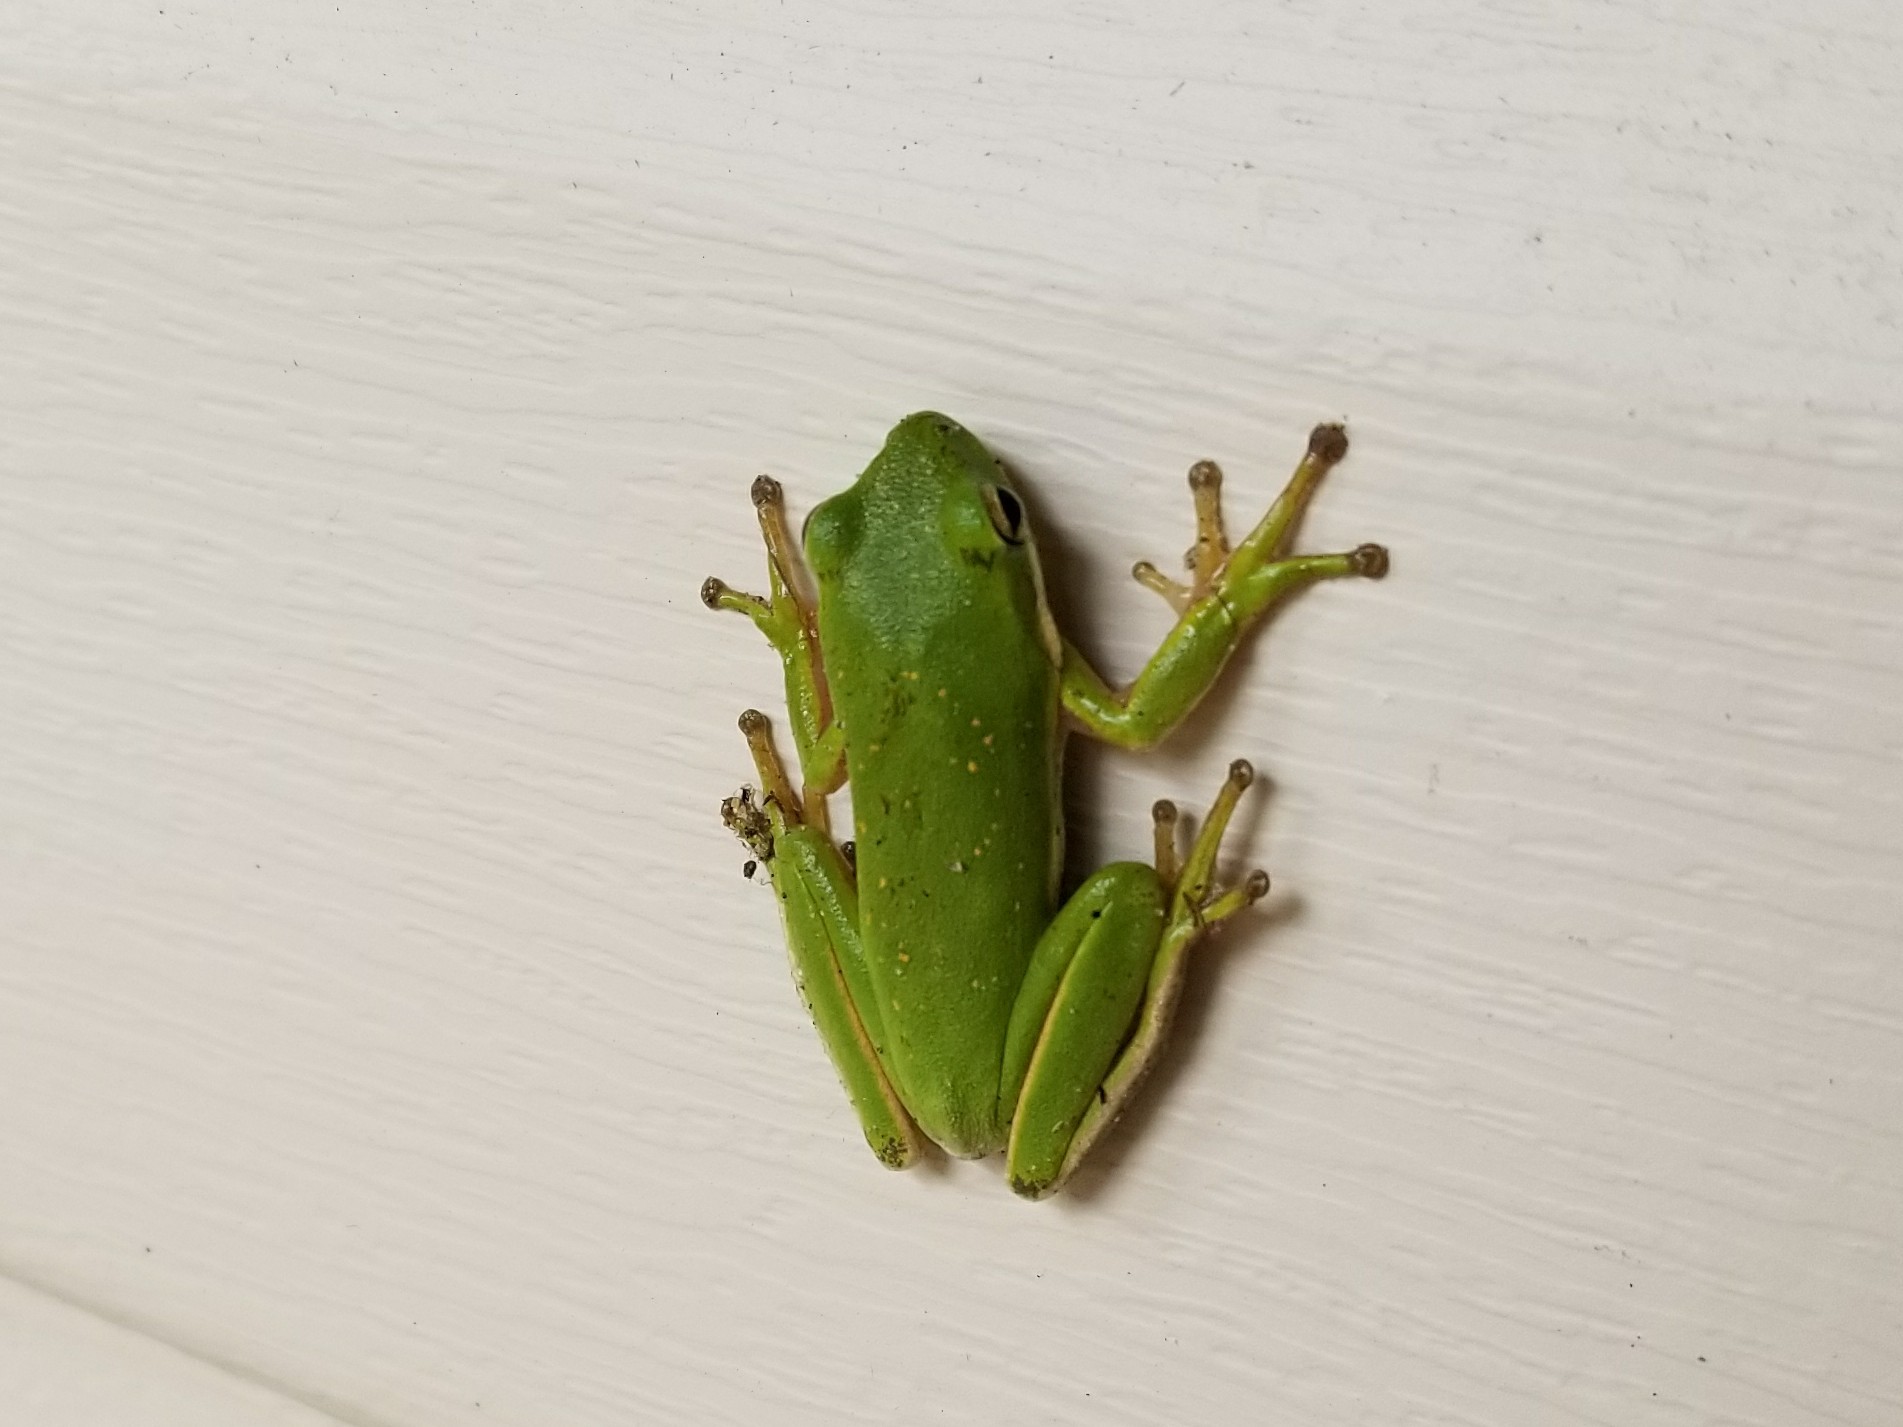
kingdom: Animalia
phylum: Chordata
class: Amphibia
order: Anura
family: Hylidae
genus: Dryophytes
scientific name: Dryophytes cinereus
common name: Green treefrog
